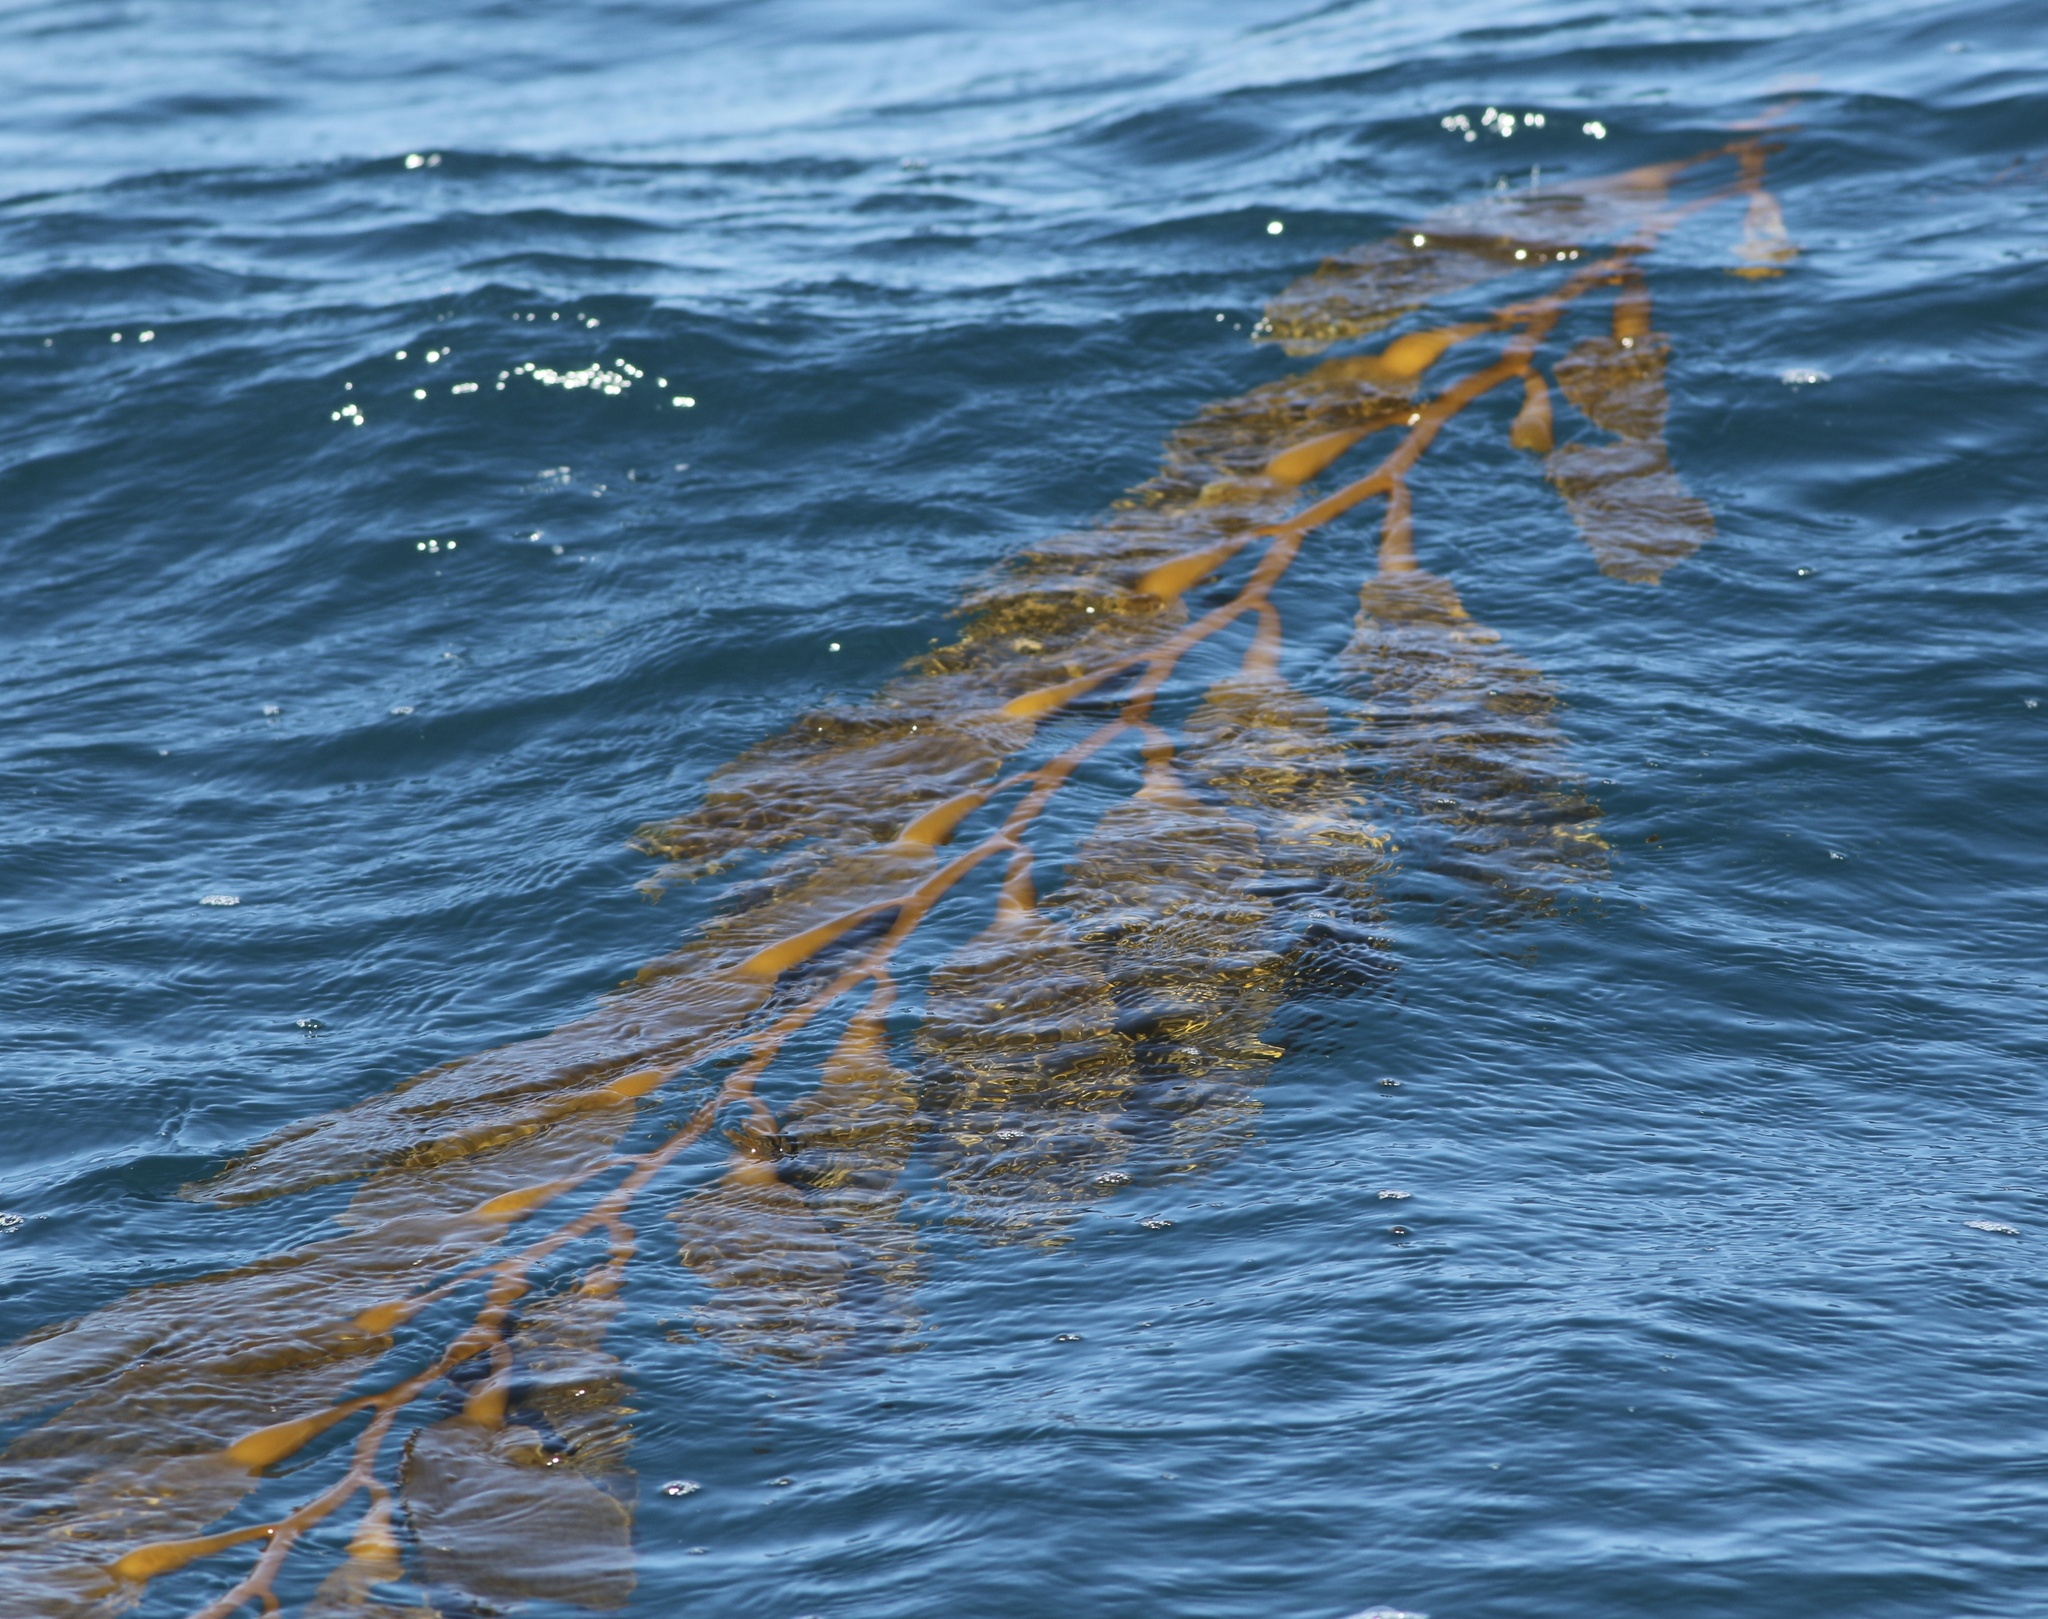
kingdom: Chromista
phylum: Ochrophyta
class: Phaeophyceae
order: Laminariales
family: Laminariaceae
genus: Macrocystis
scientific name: Macrocystis pyrifera
